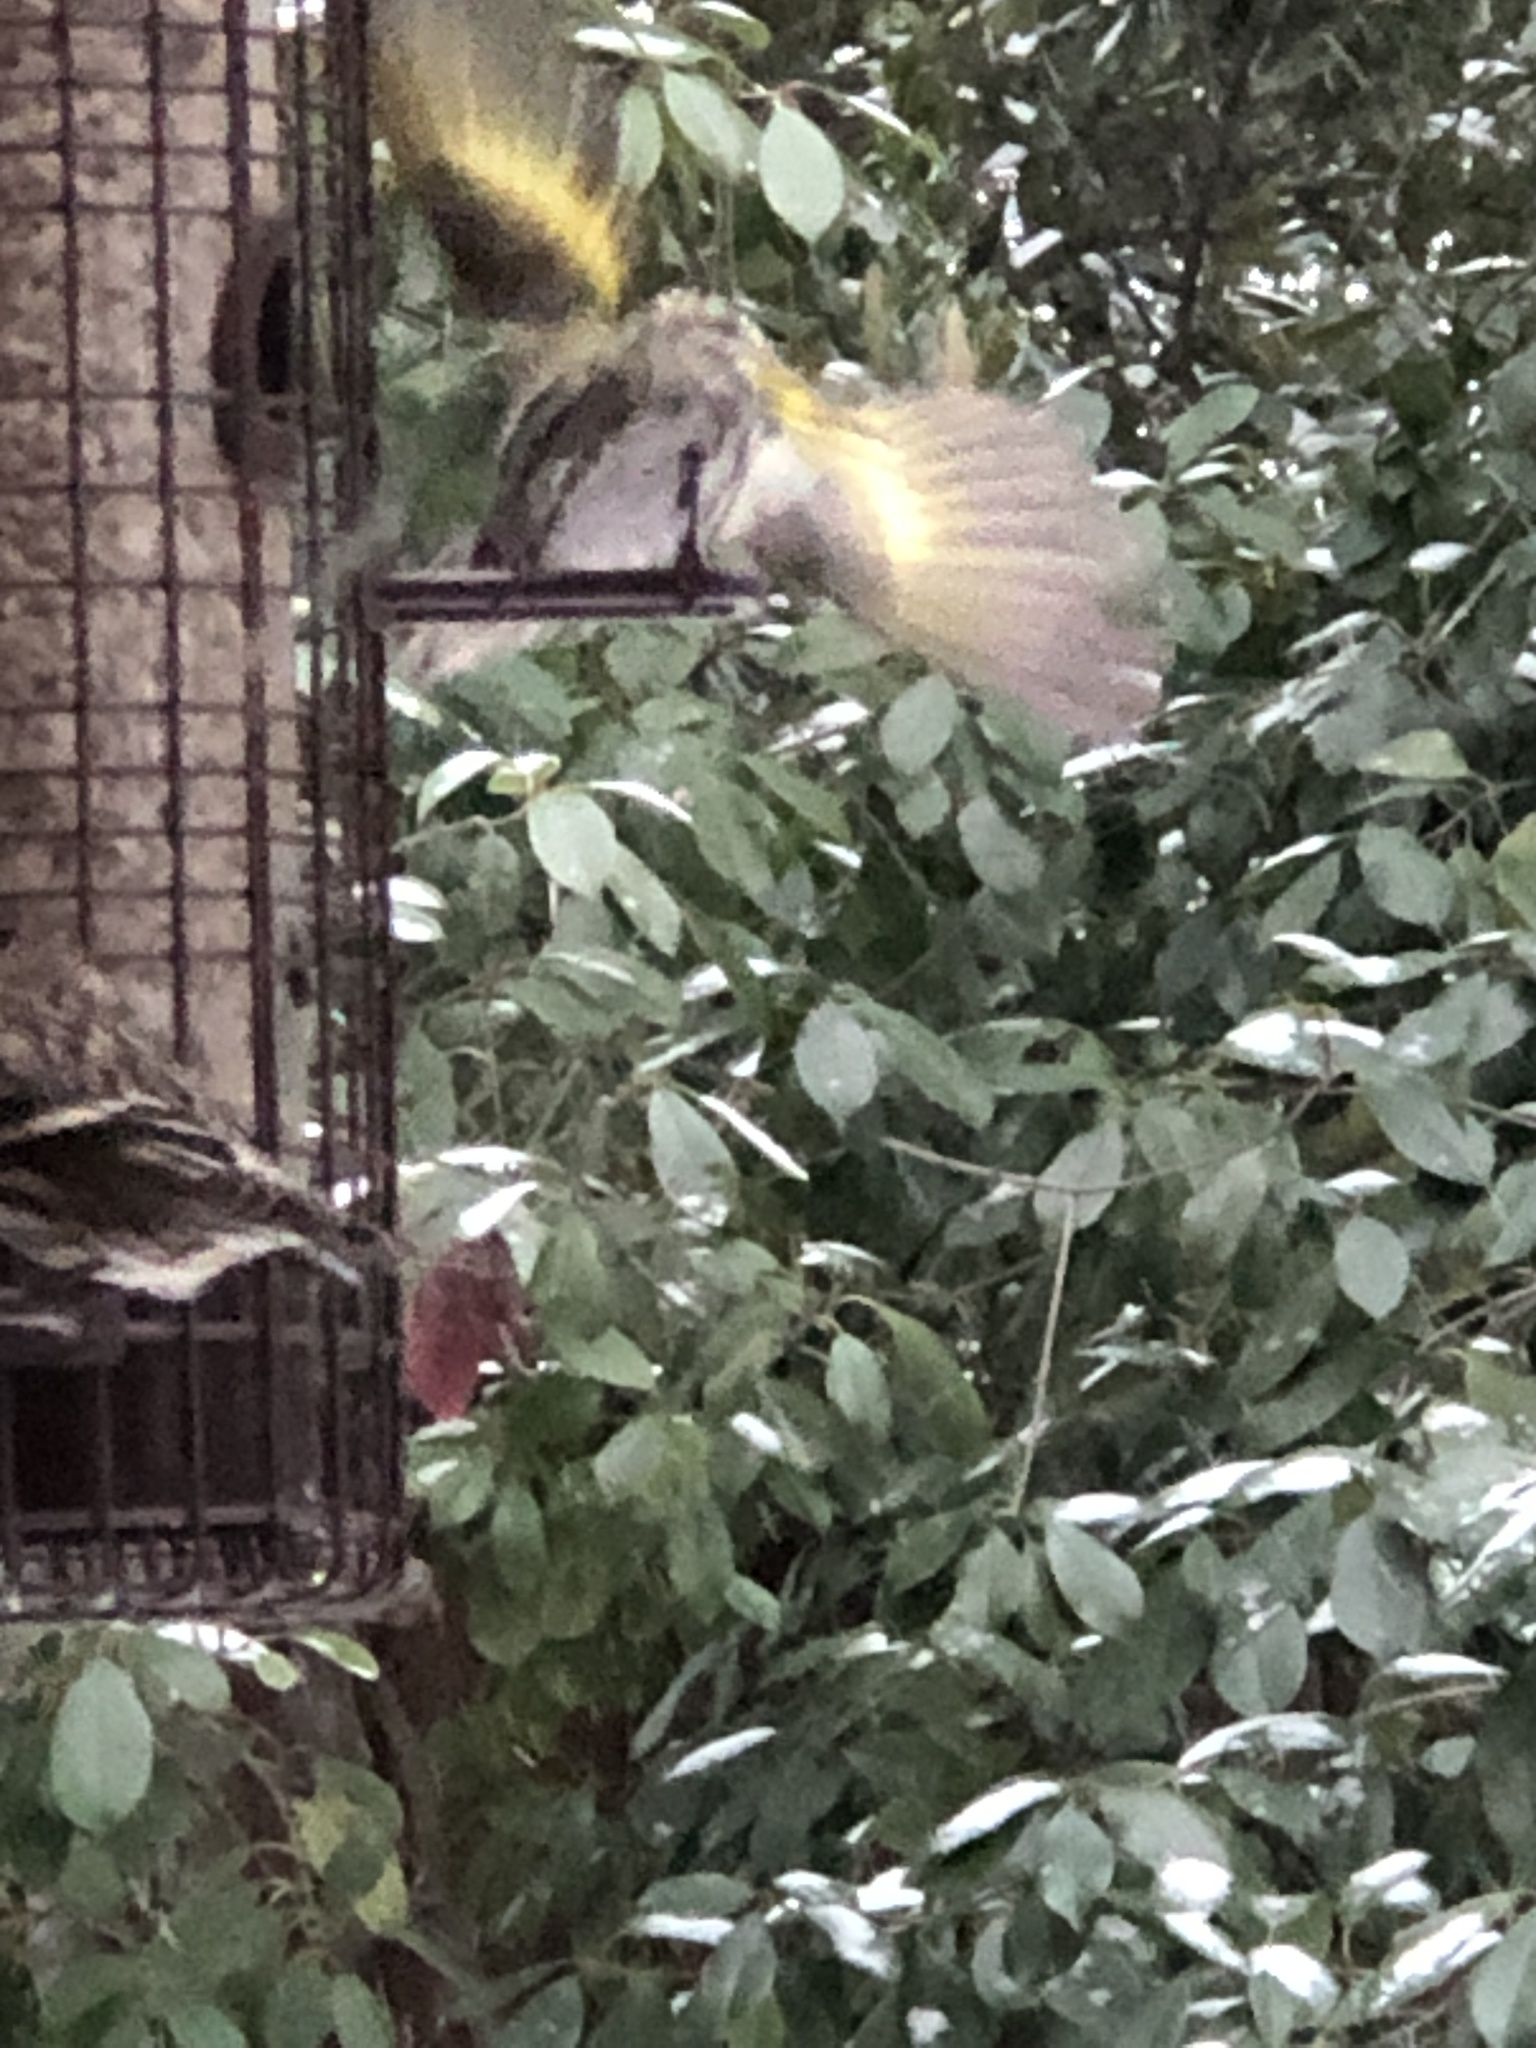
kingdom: Animalia
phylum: Chordata
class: Aves
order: Passeriformes
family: Fringillidae
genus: Spinus
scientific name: Spinus pinus
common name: Pine siskin
